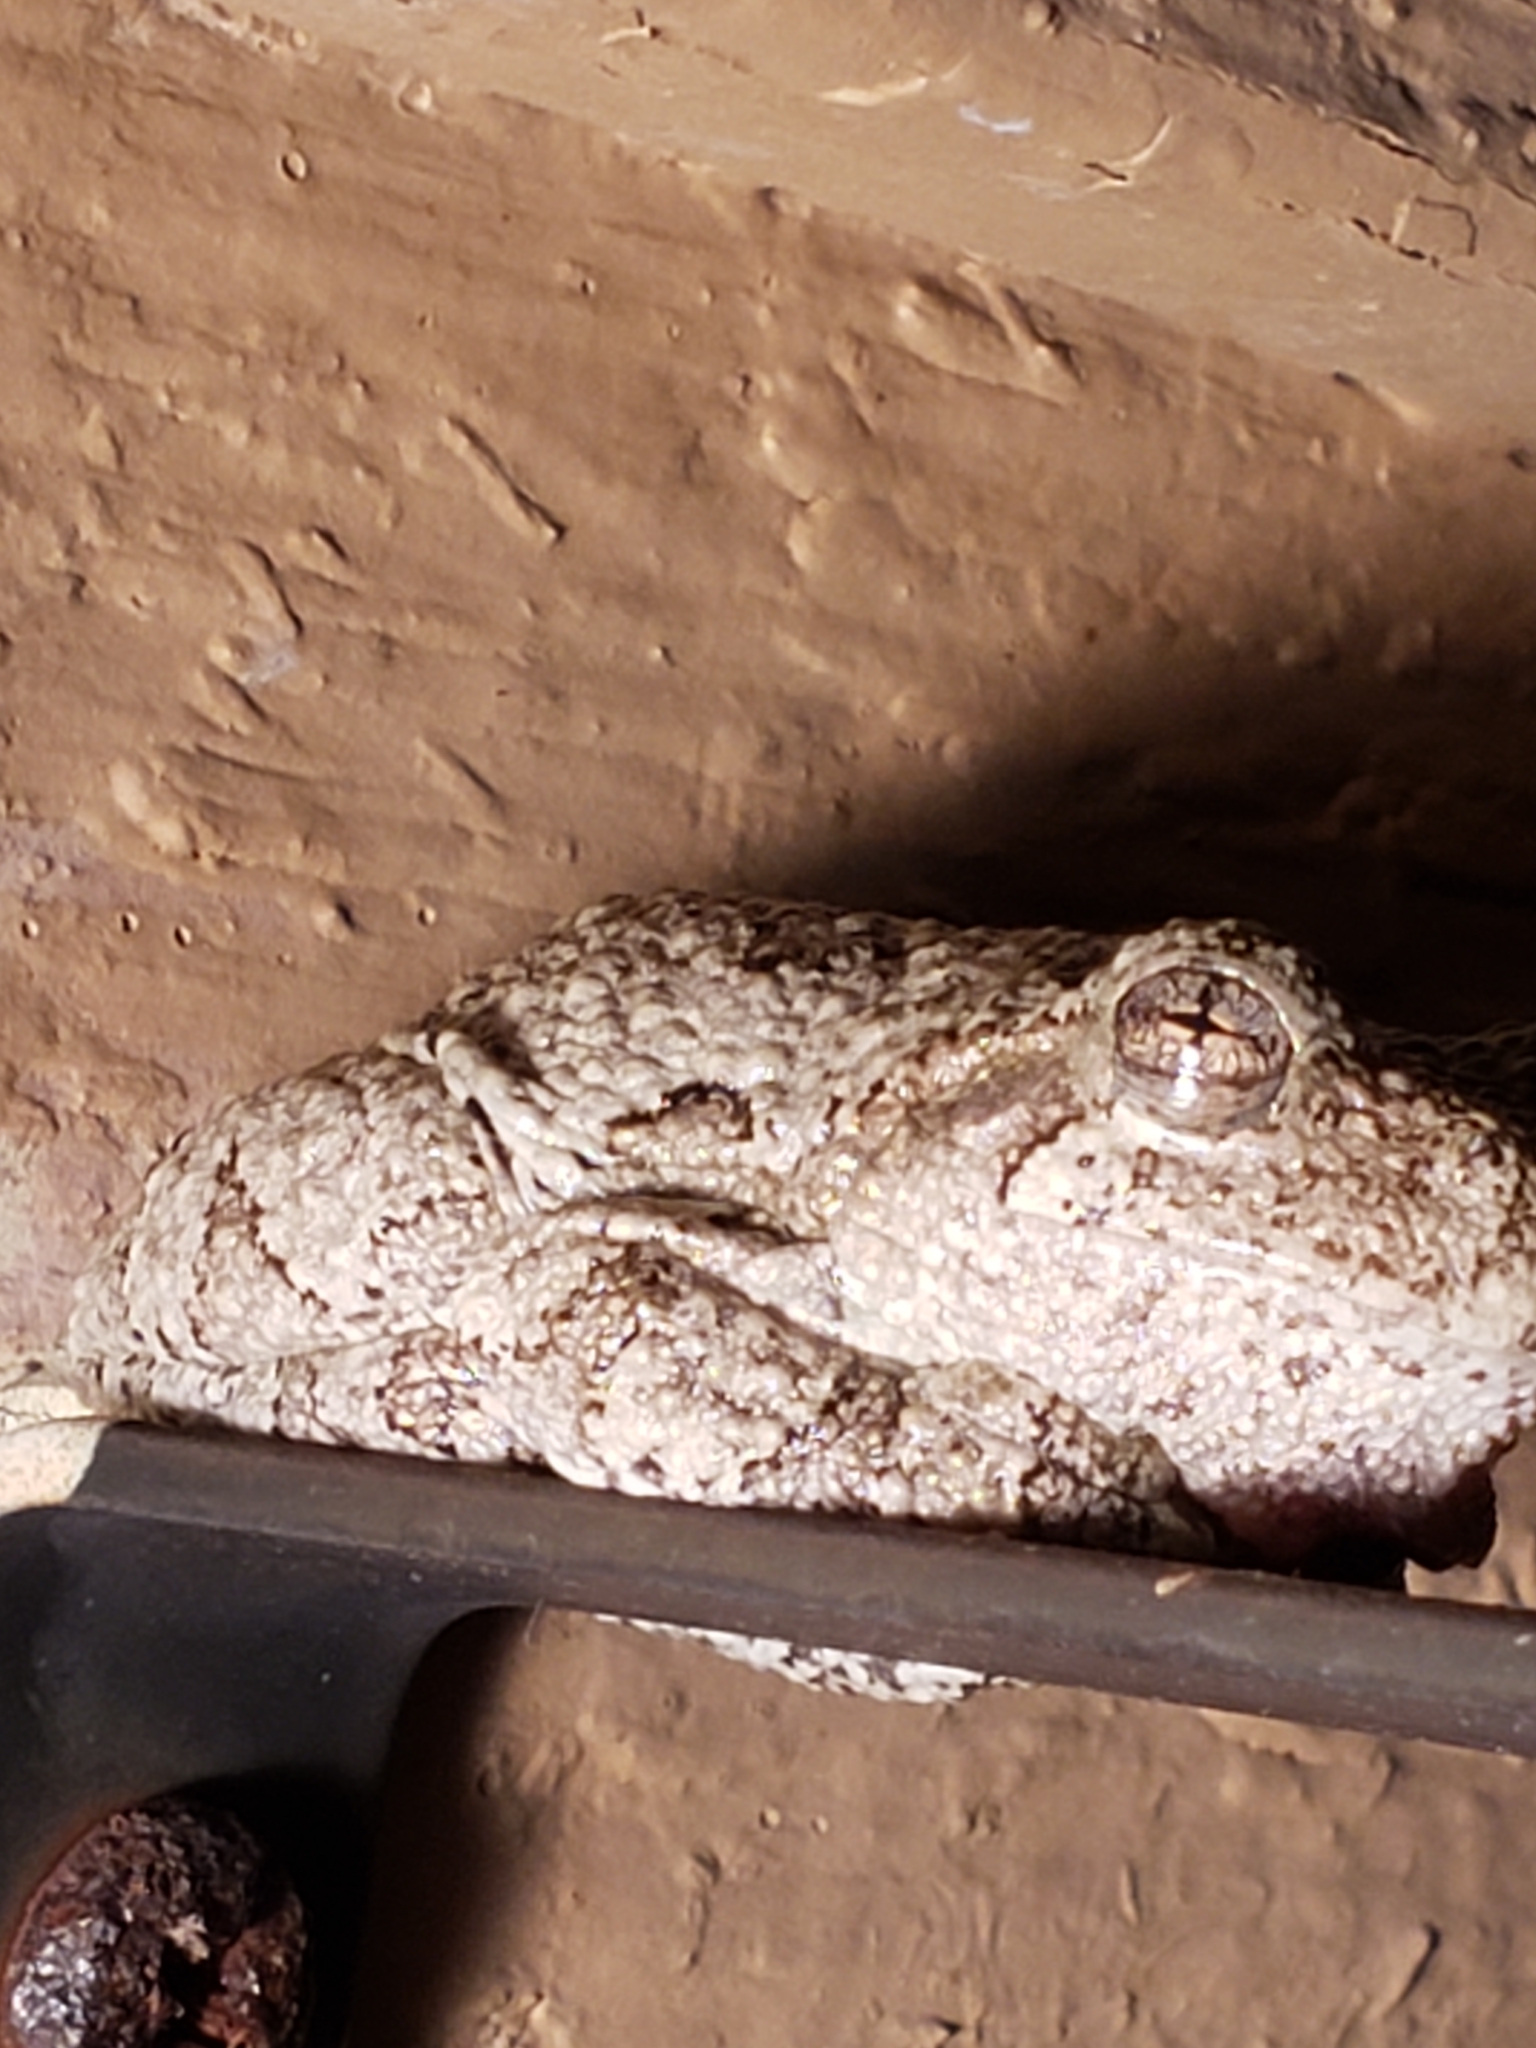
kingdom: Animalia
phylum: Chordata
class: Amphibia
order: Anura
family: Hylidae
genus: Hyla
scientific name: Hyla
